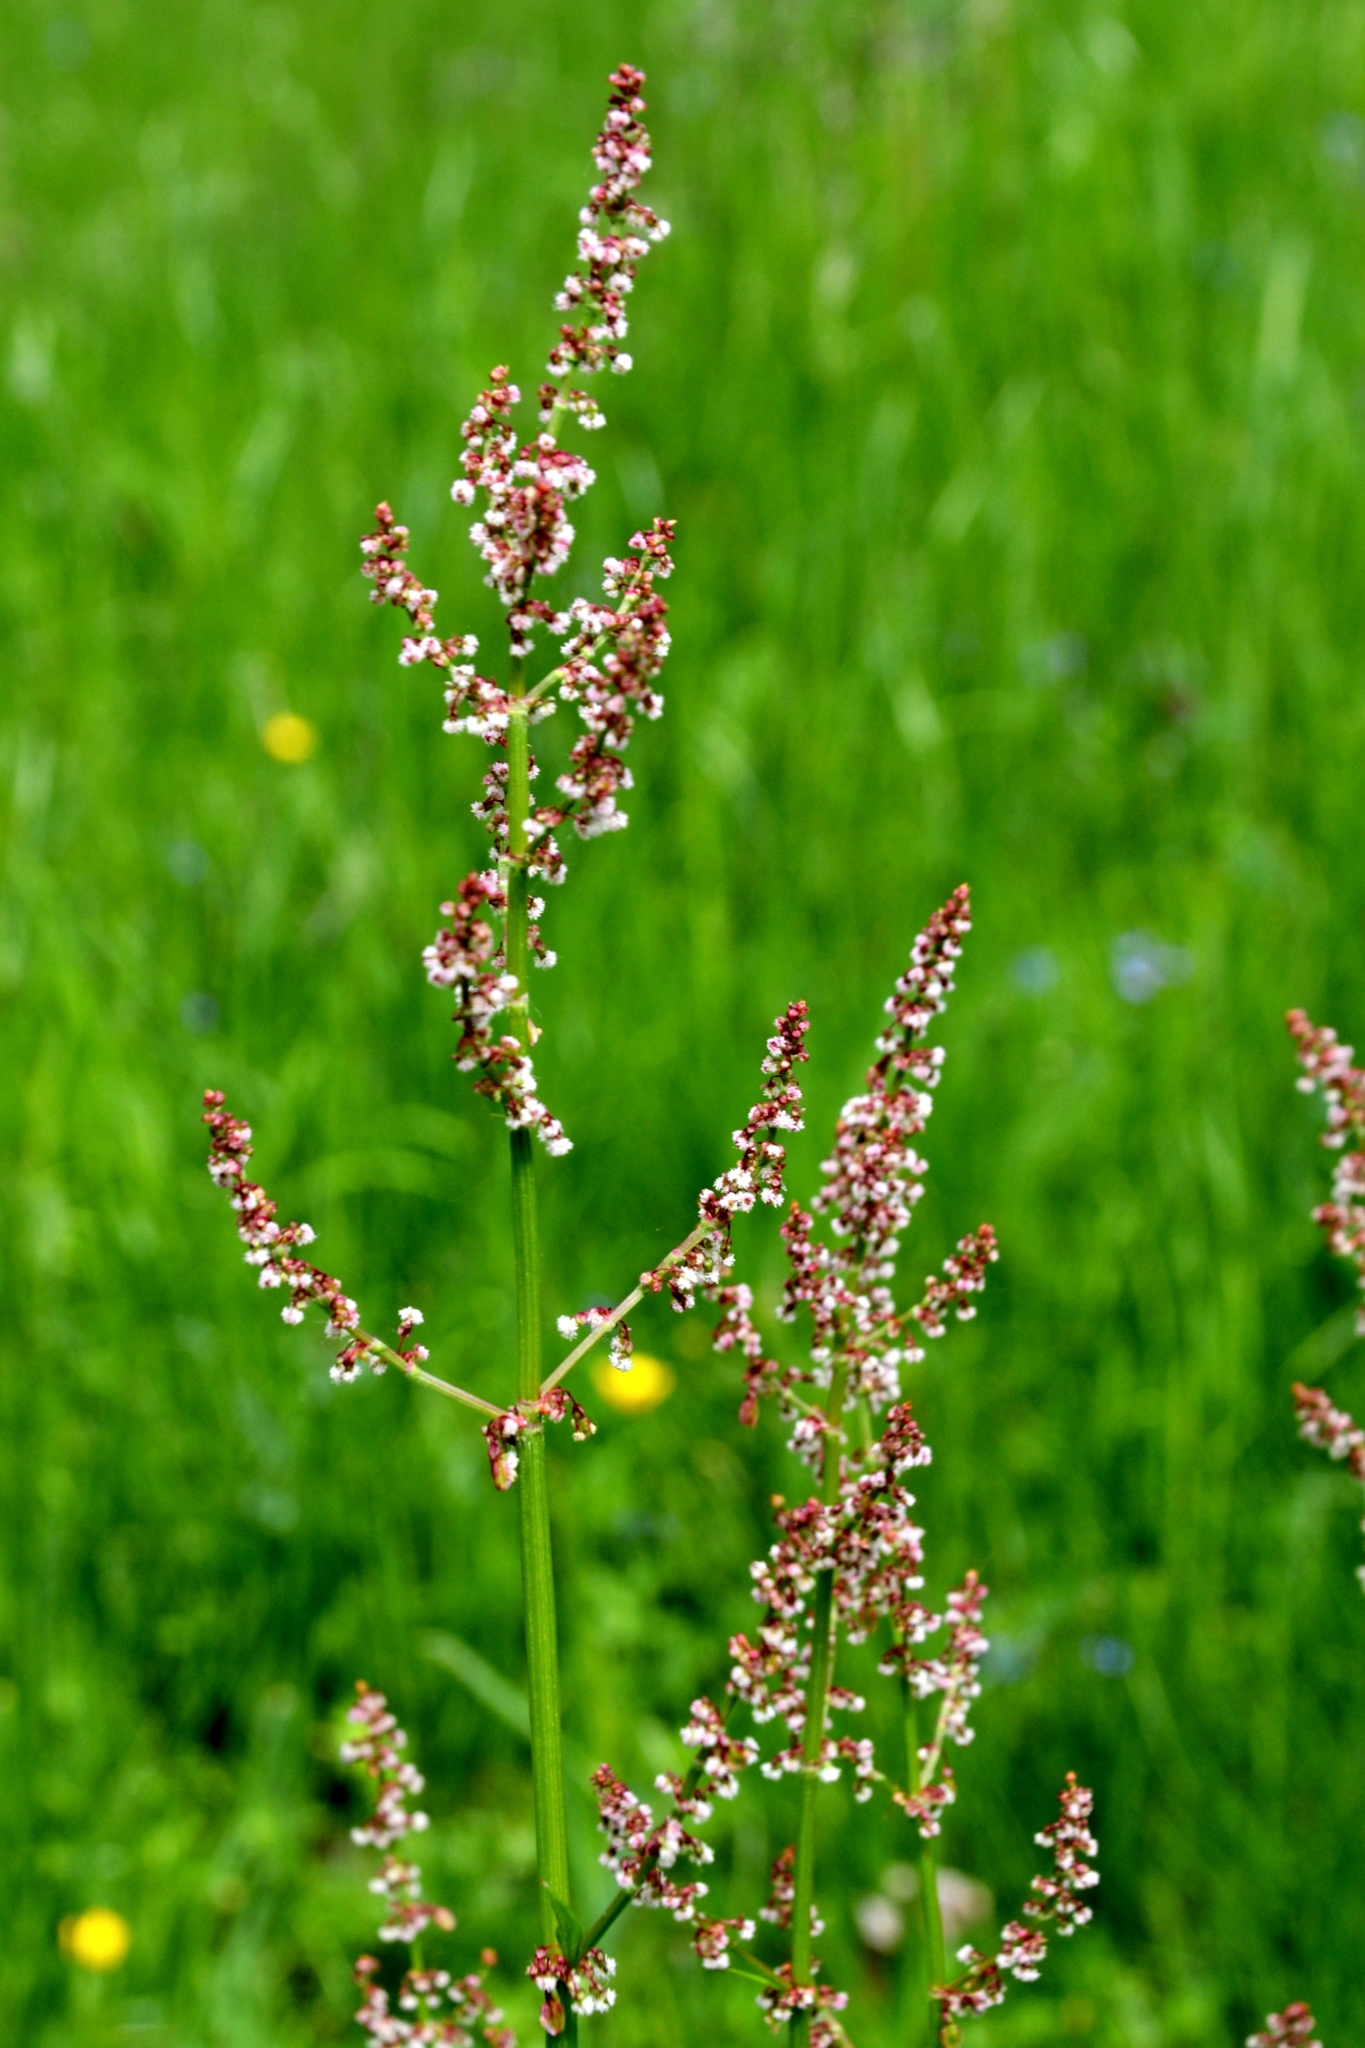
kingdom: Plantae
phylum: Tracheophyta
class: Magnoliopsida
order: Caryophyllales
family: Polygonaceae
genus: Rumex
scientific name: Rumex acetosa
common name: Garden sorrel
